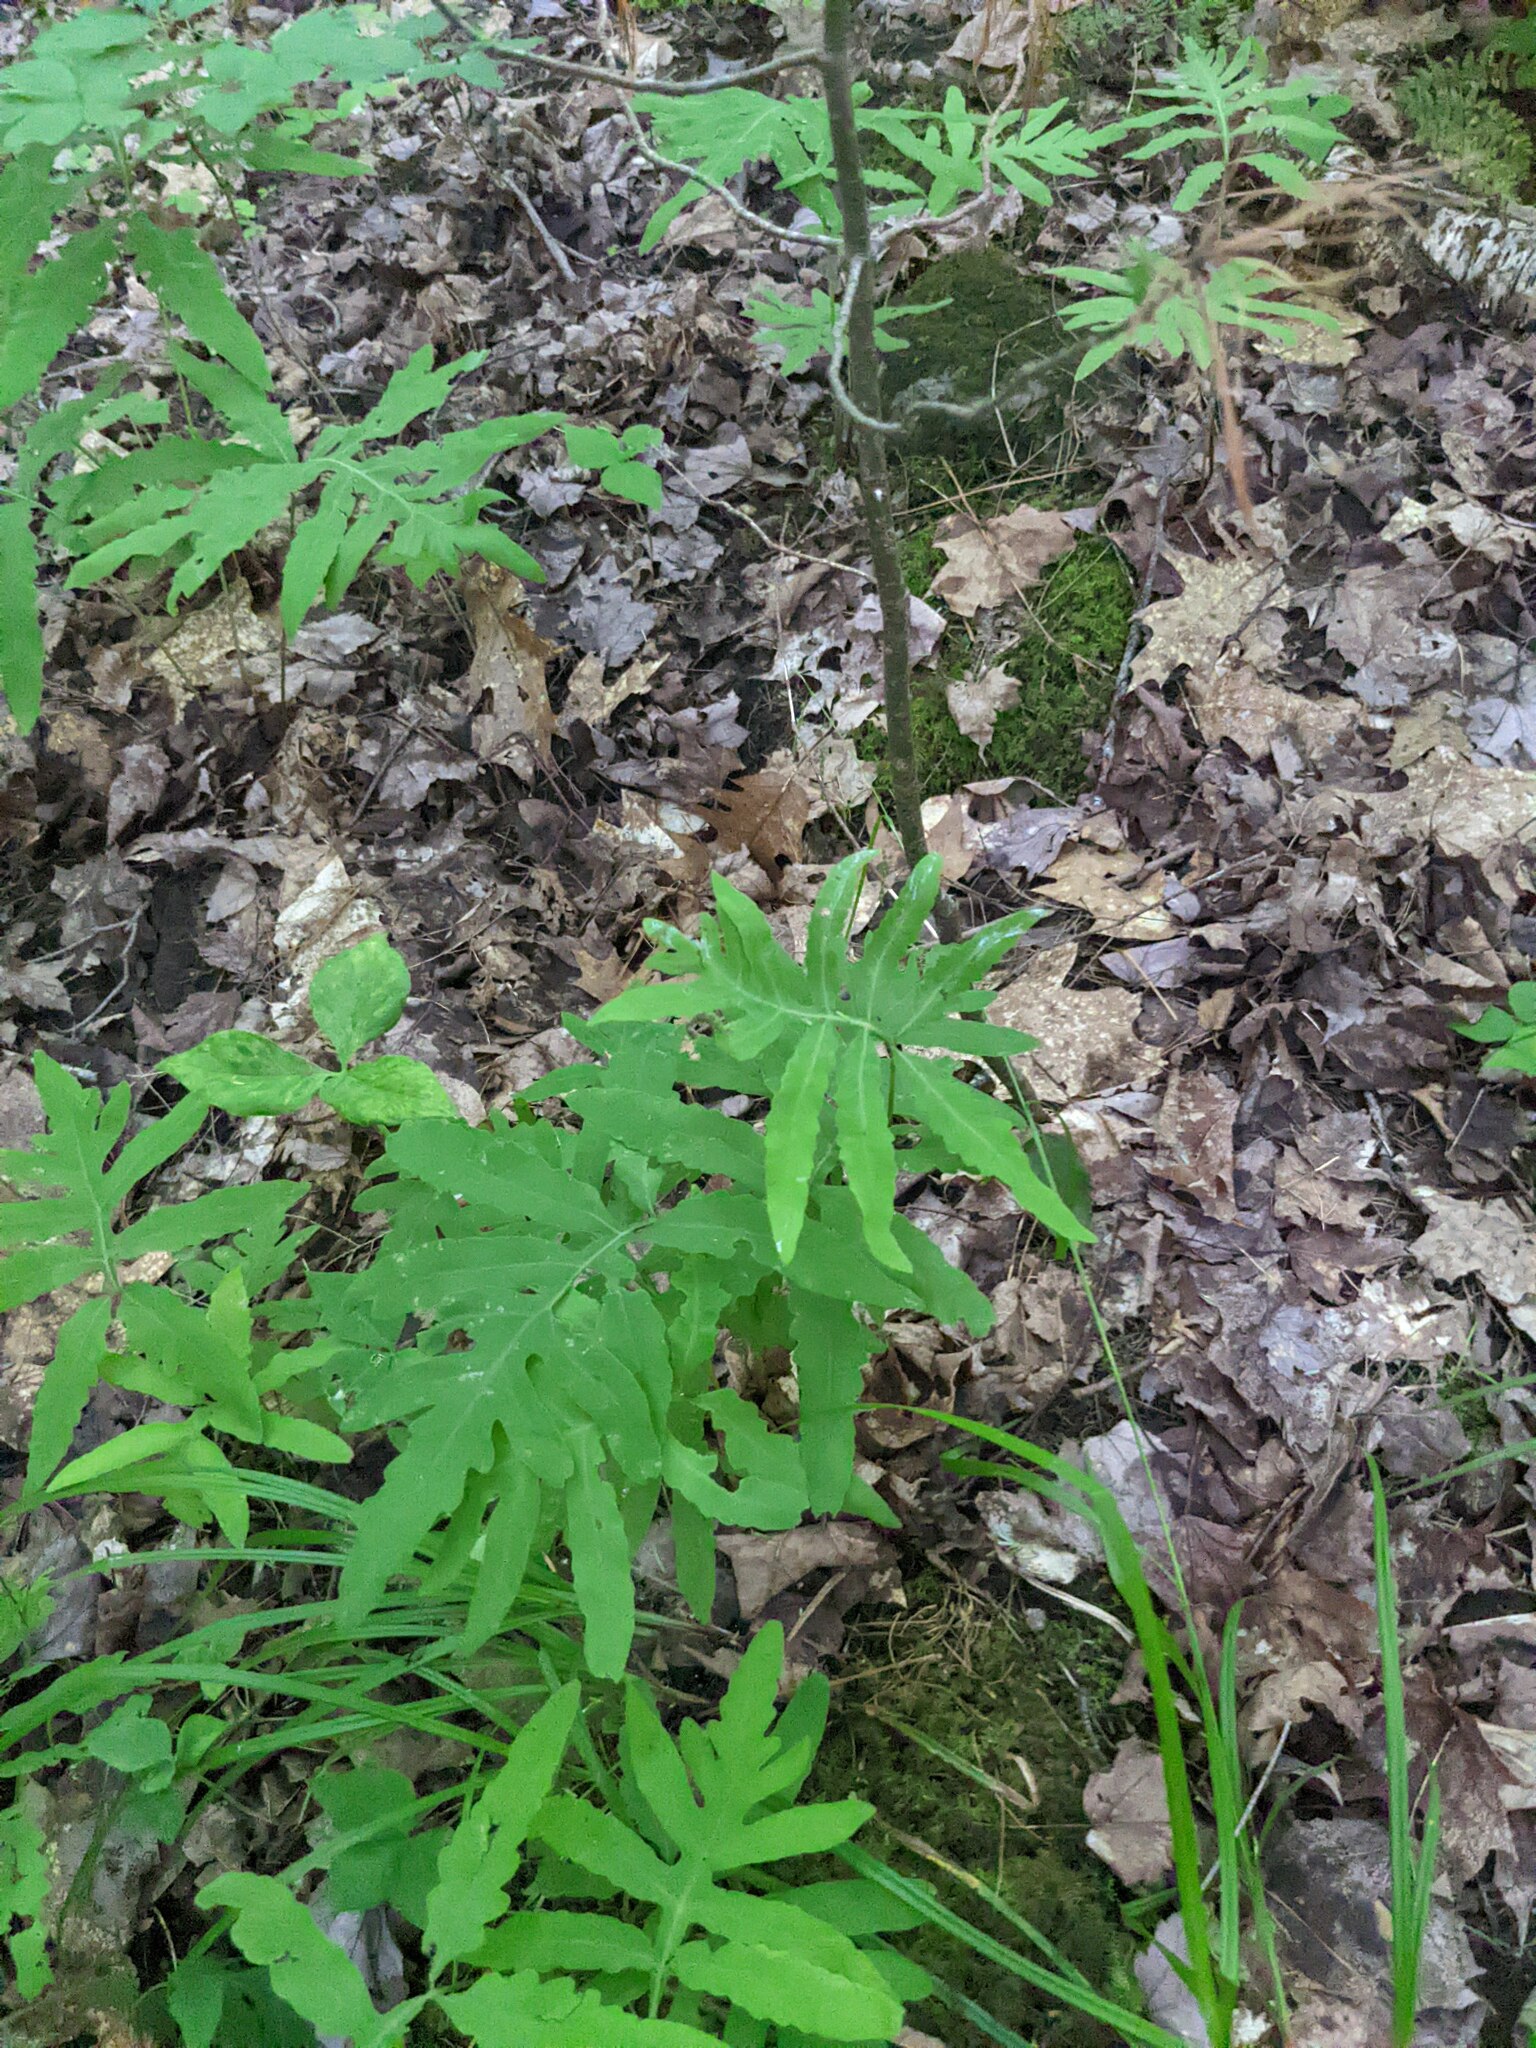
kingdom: Plantae
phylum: Tracheophyta
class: Polypodiopsida
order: Polypodiales
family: Onocleaceae
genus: Onoclea
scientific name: Onoclea sensibilis
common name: Sensitive fern
